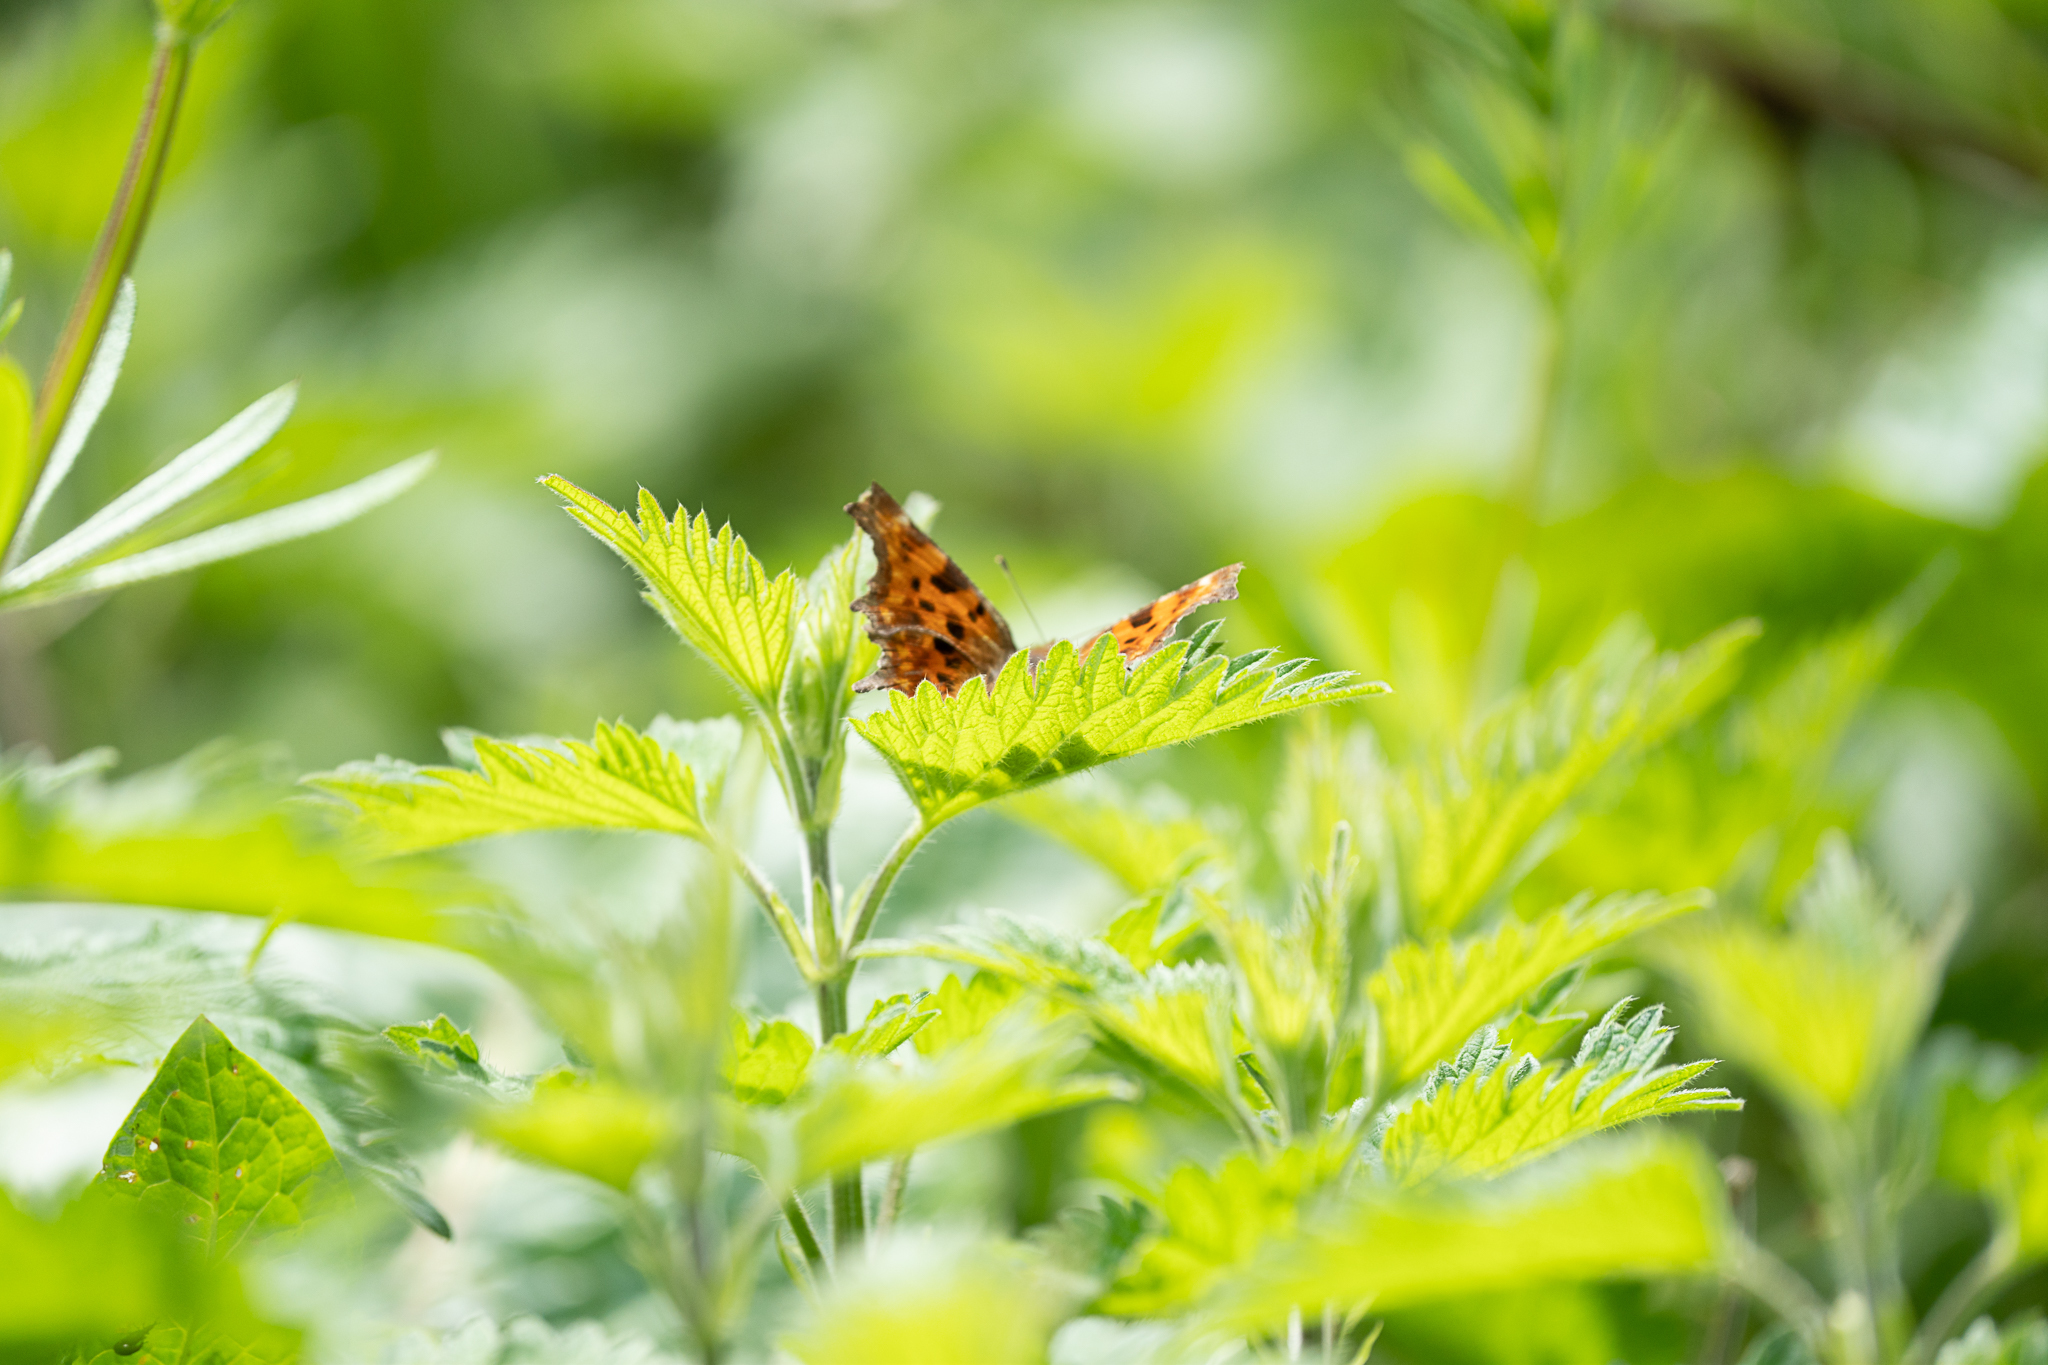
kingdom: Animalia
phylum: Arthropoda
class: Insecta
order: Lepidoptera
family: Nymphalidae
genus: Polygonia
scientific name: Polygonia c-album
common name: Comma
